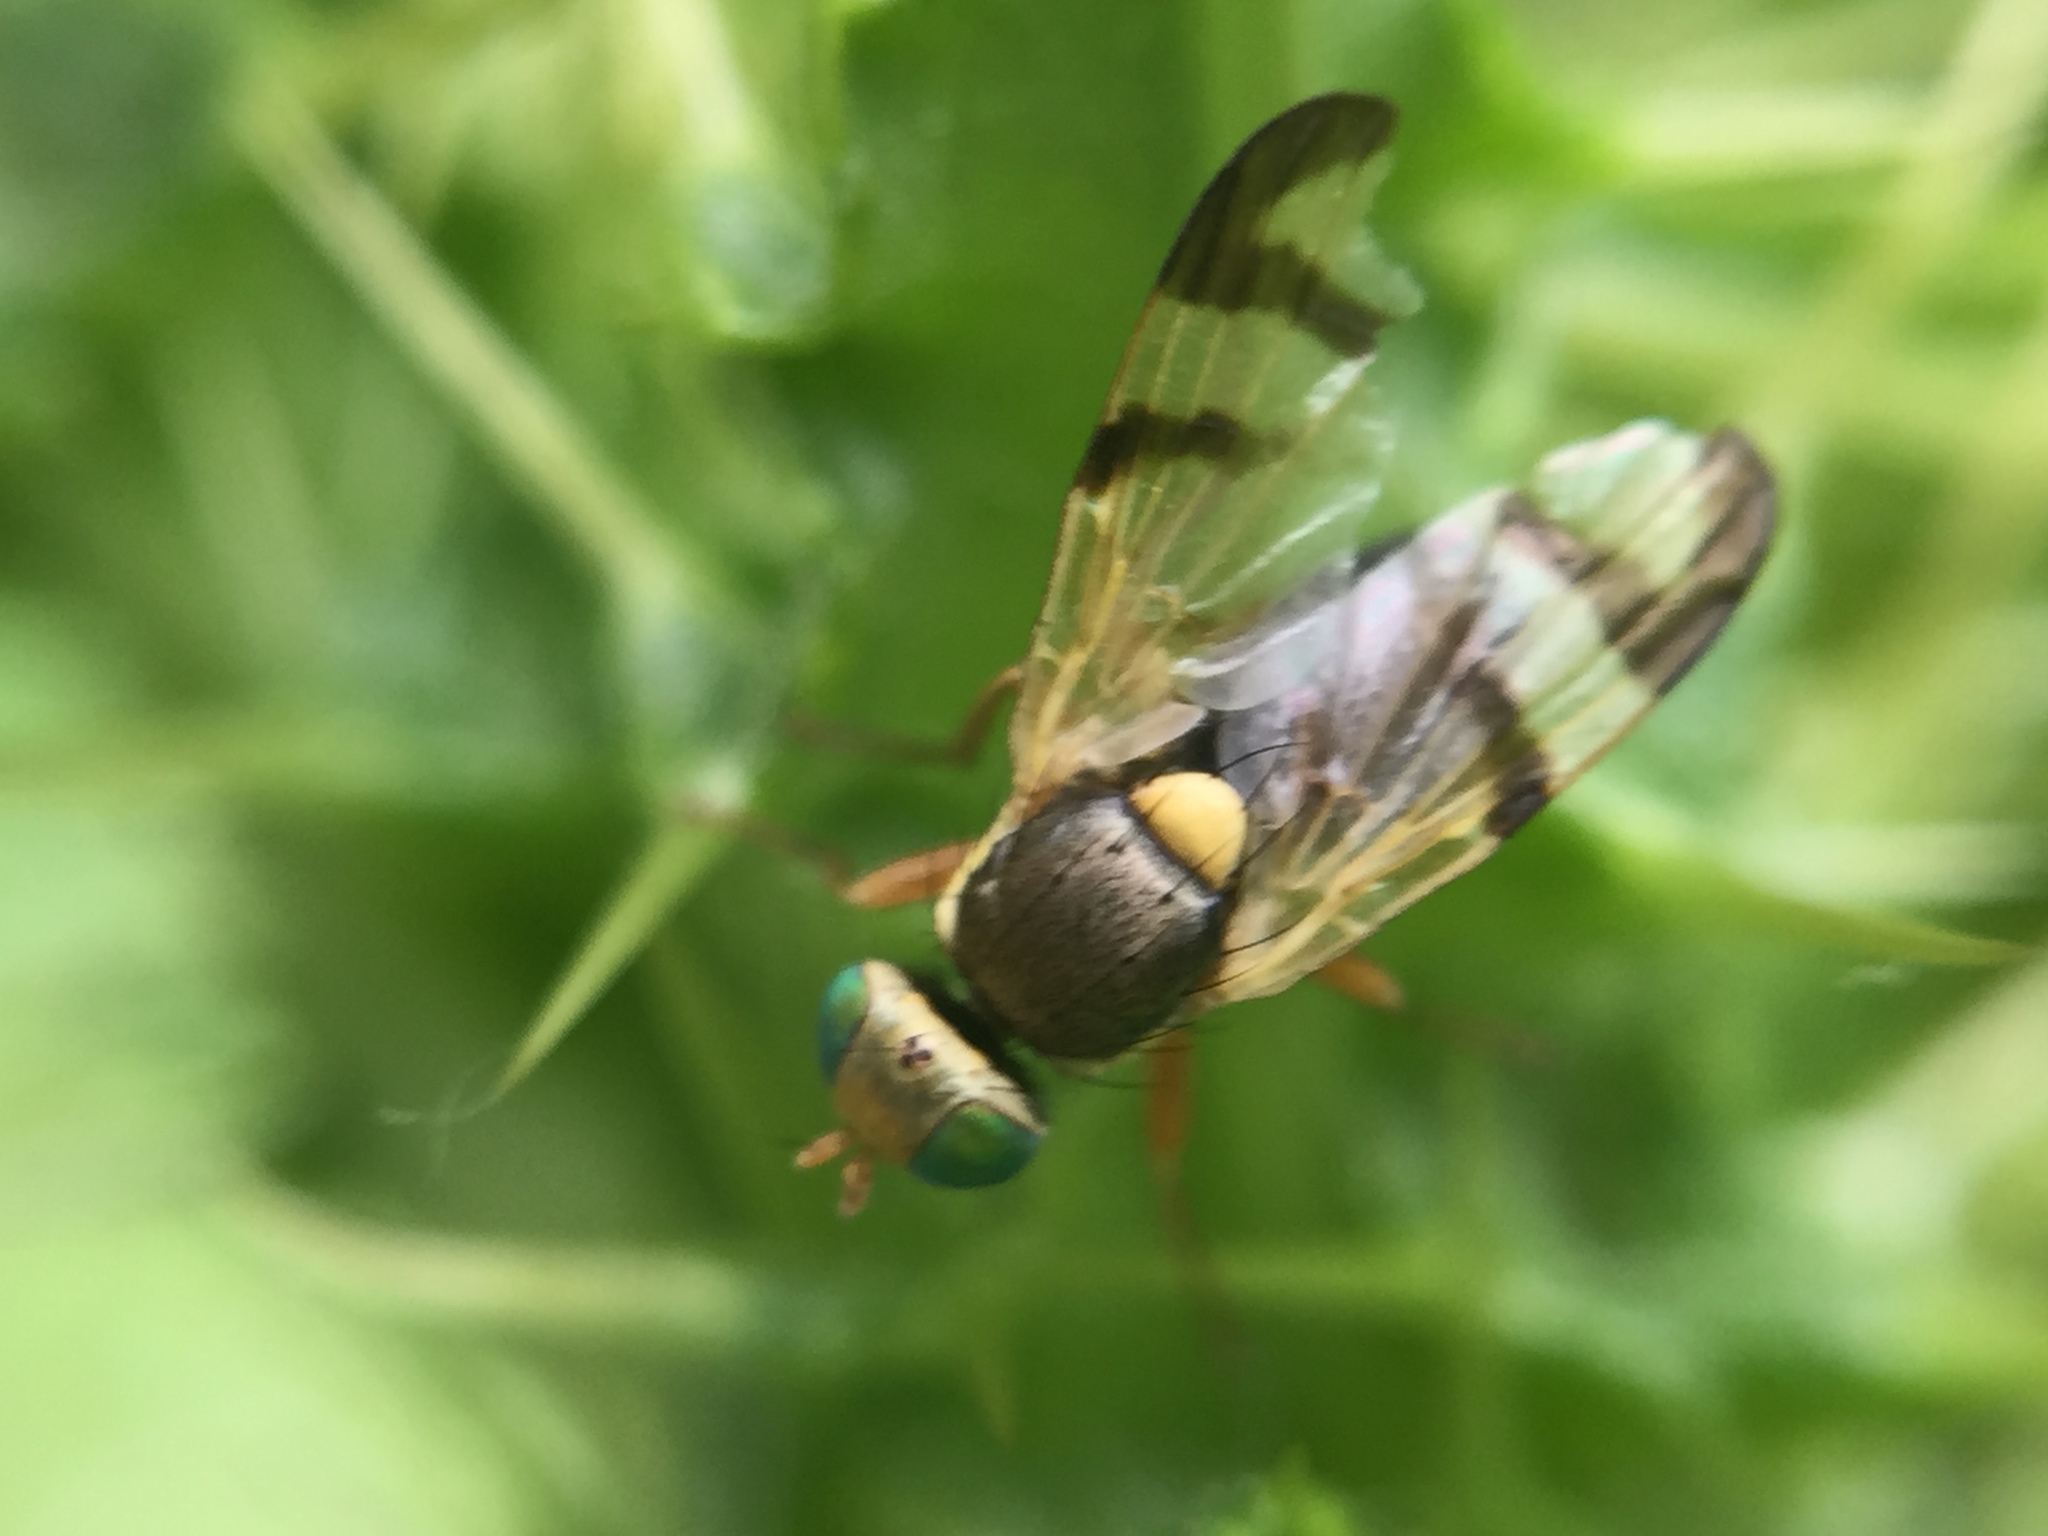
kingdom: Animalia
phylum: Arthropoda
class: Insecta
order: Diptera
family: Tephritidae
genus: Urophora
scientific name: Urophora stylata
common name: Fruit fly
